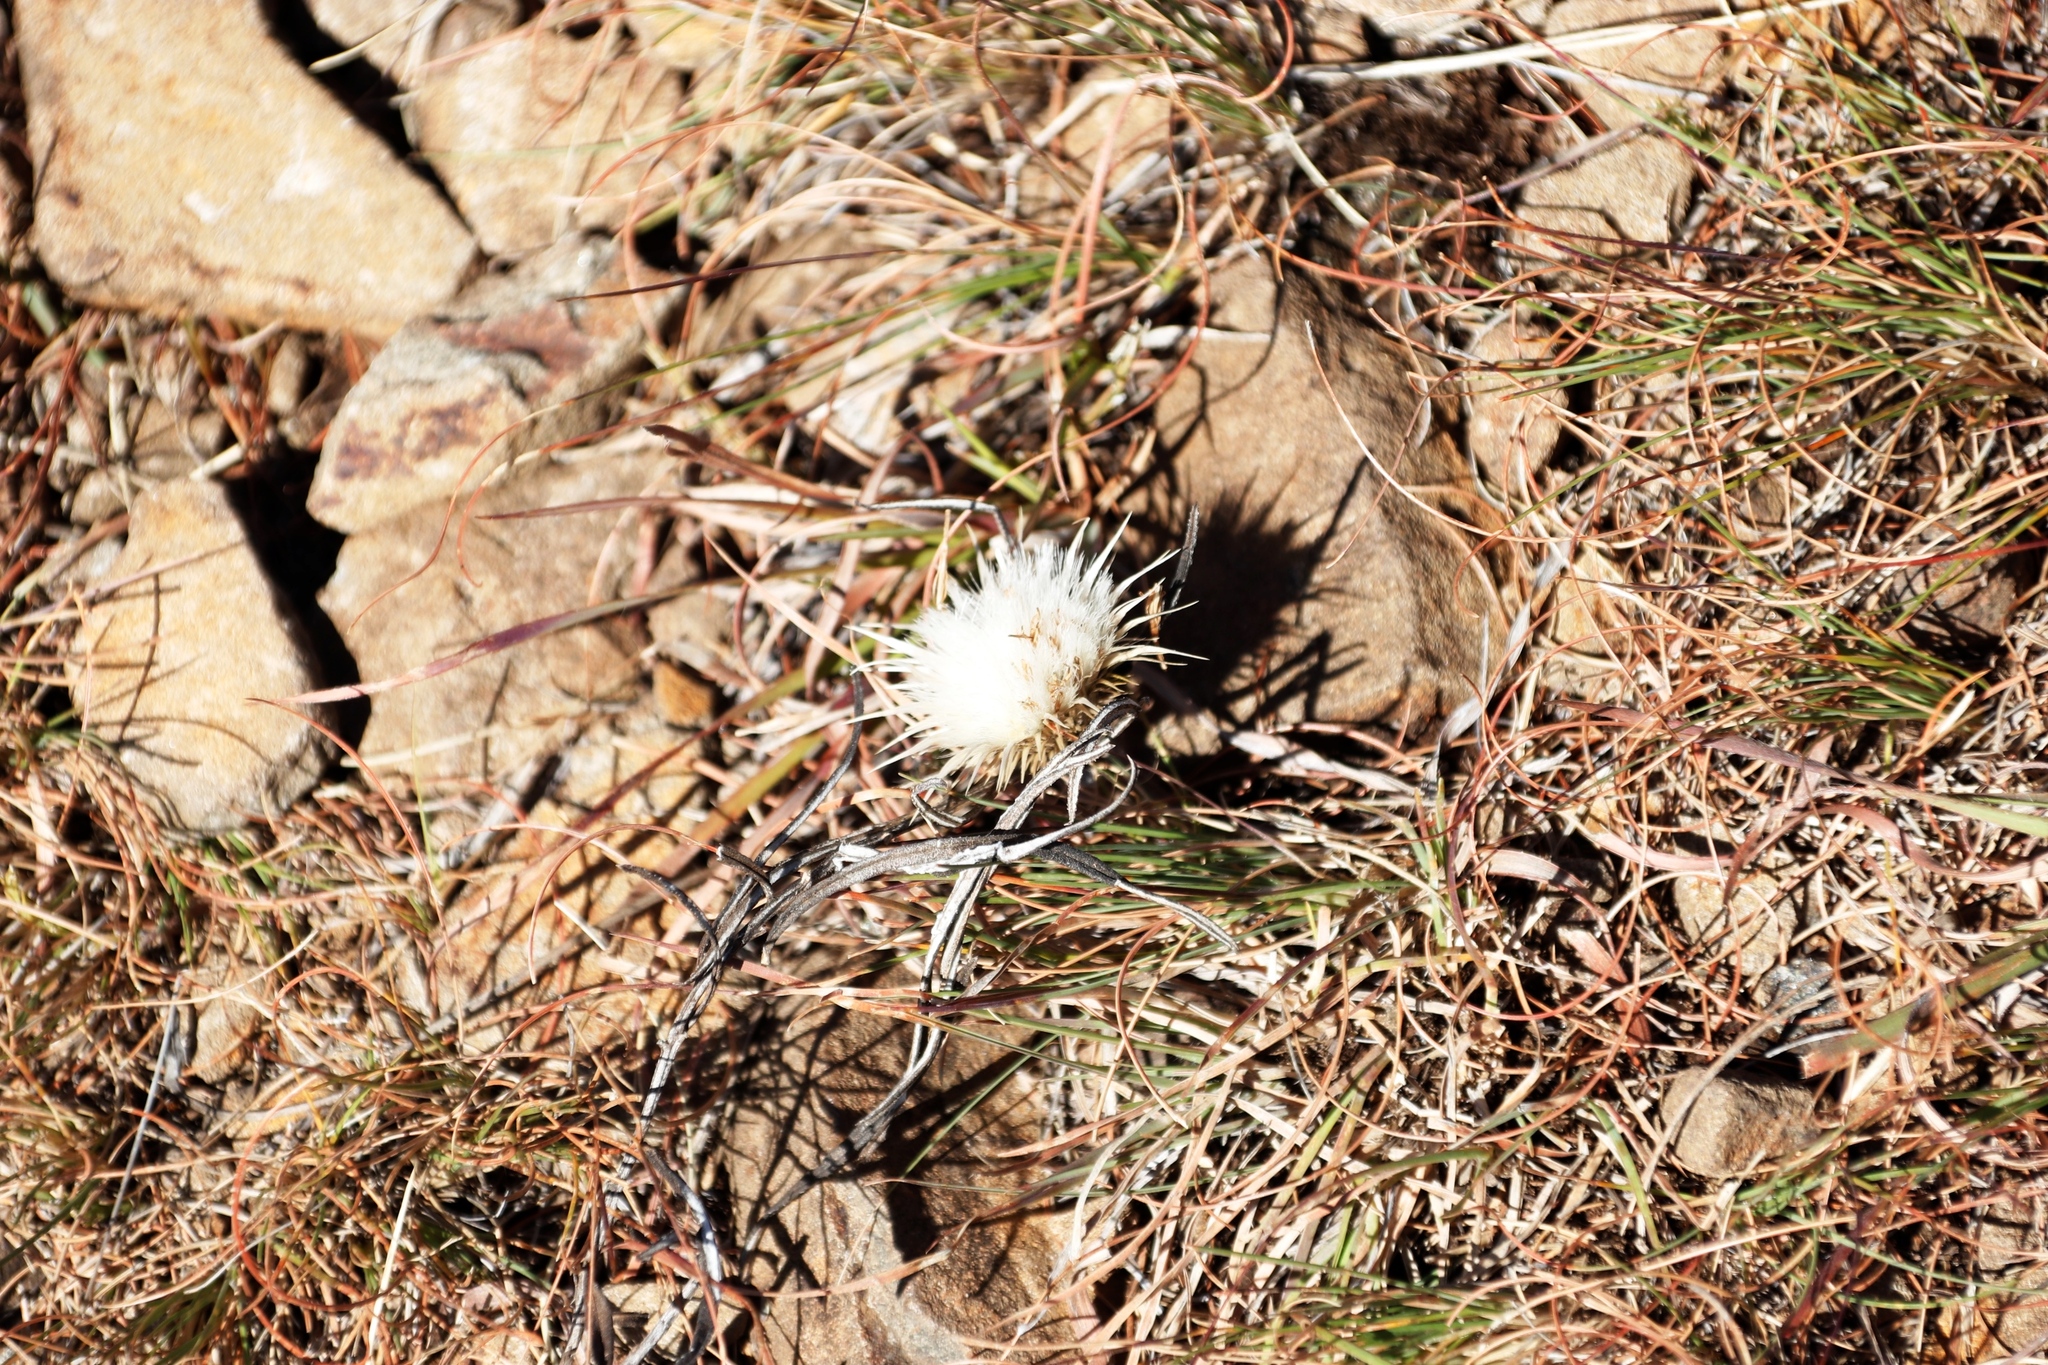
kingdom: Plantae
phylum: Tracheophyta
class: Magnoliopsida
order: Asterales
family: Asteraceae
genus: Dicoma
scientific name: Dicoma anomala
